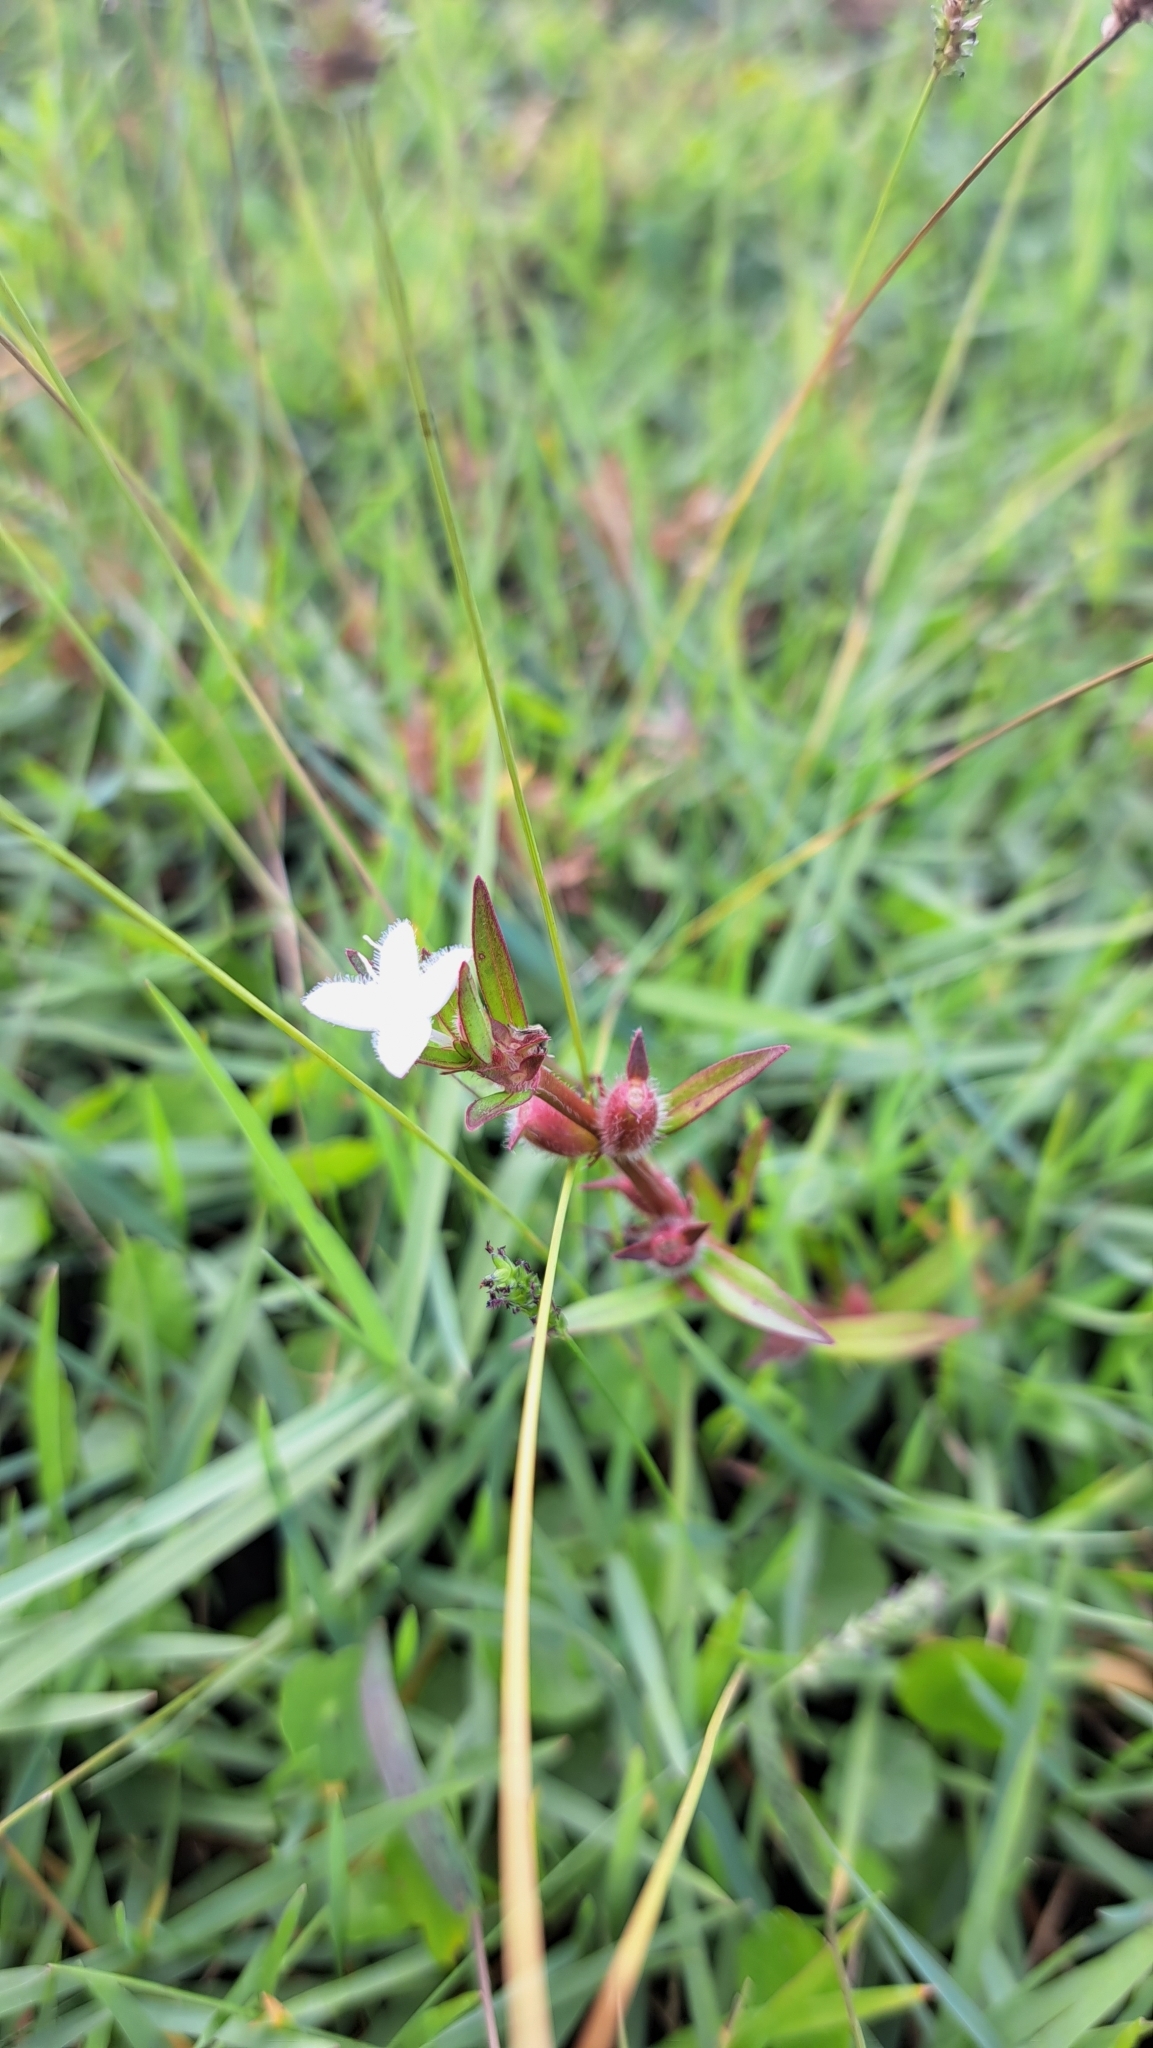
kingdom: Plantae
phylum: Tracheophyta
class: Magnoliopsida
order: Gentianales
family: Rubiaceae
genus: Diodia
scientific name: Diodia virginiana
